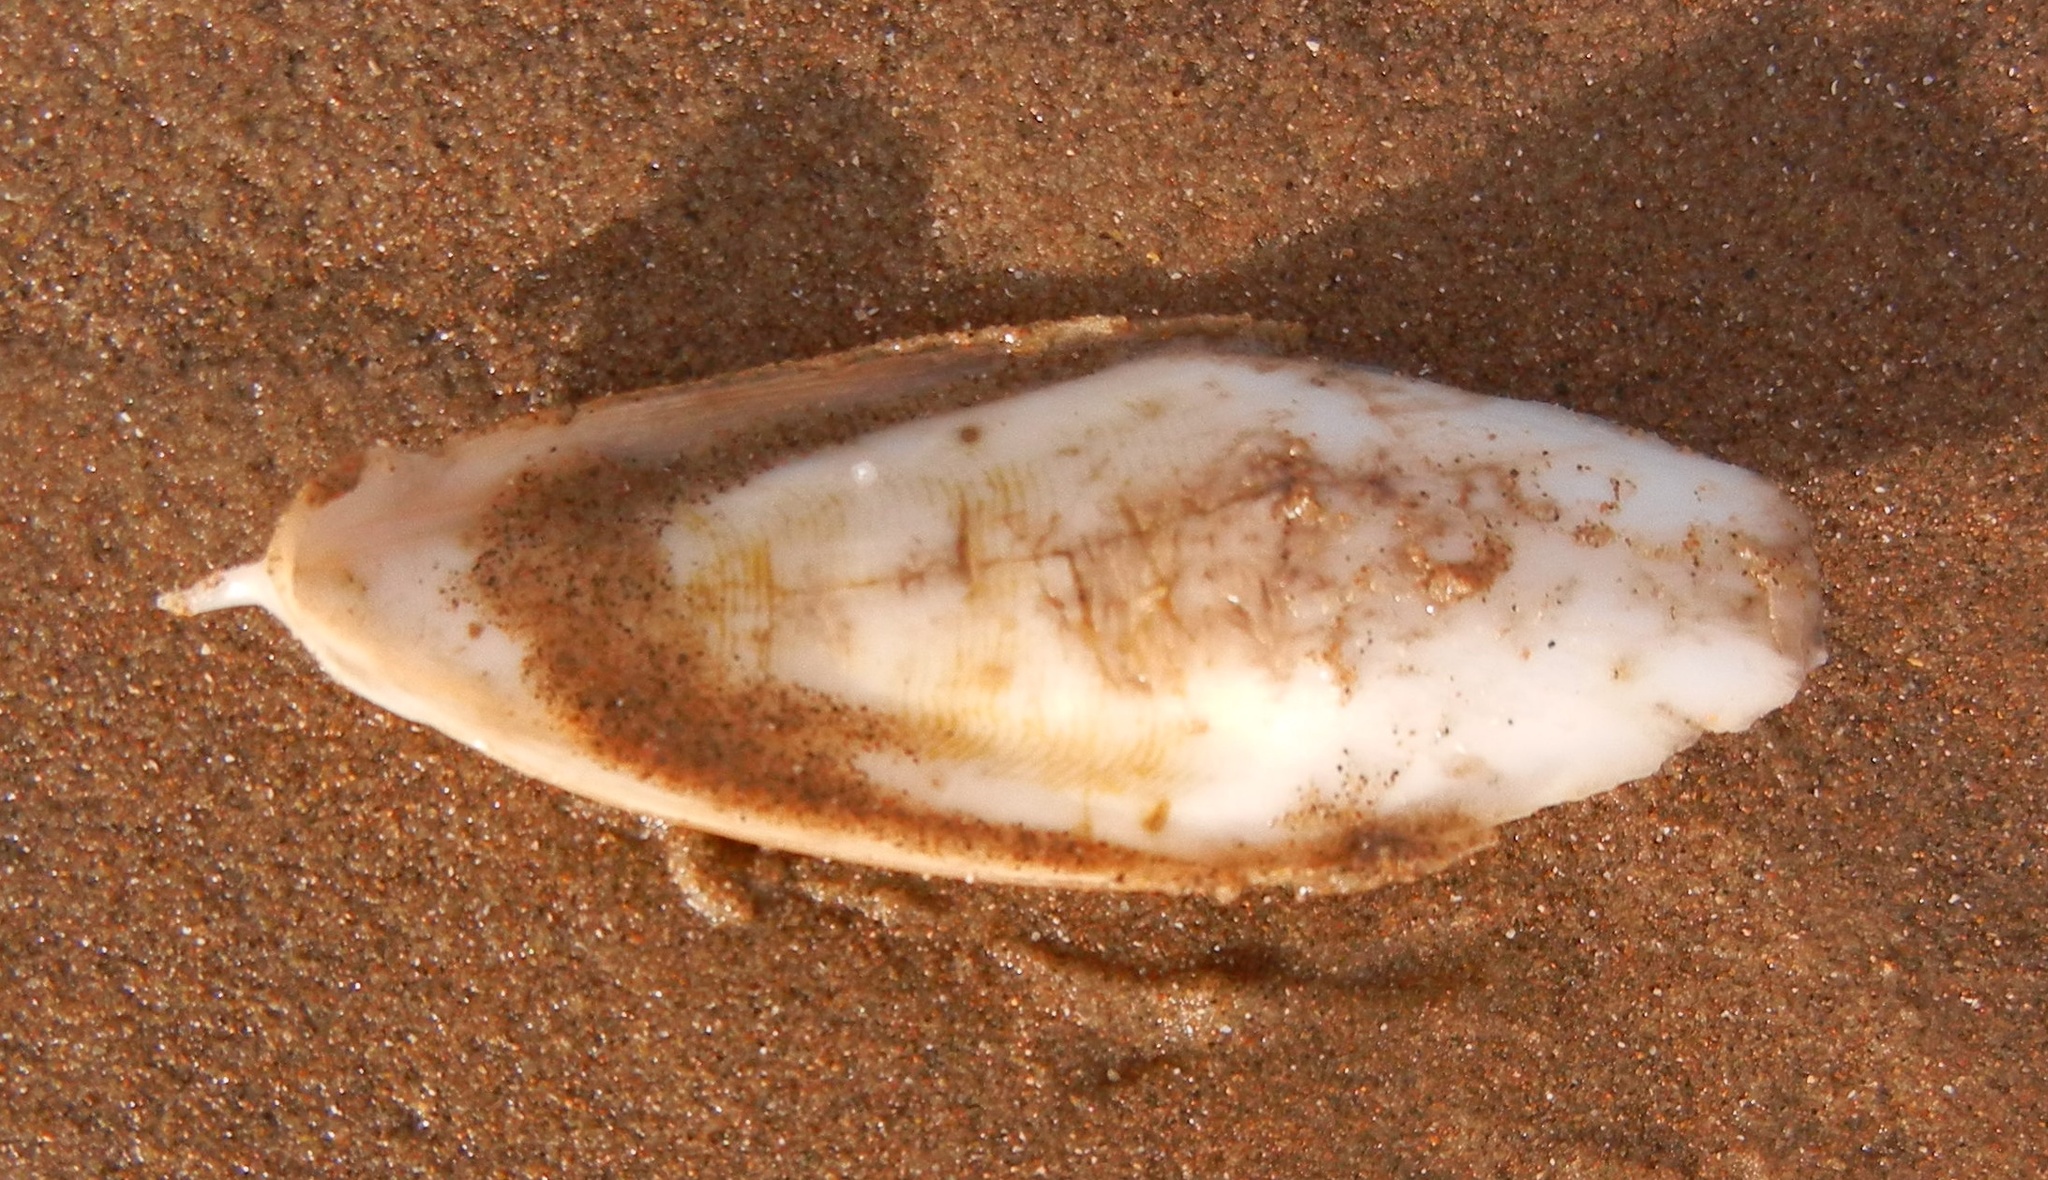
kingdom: Animalia
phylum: Mollusca
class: Cephalopoda
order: Sepiida
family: Sepiidae
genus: Rhombosepion
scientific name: Rhombosepion orbignyanum
